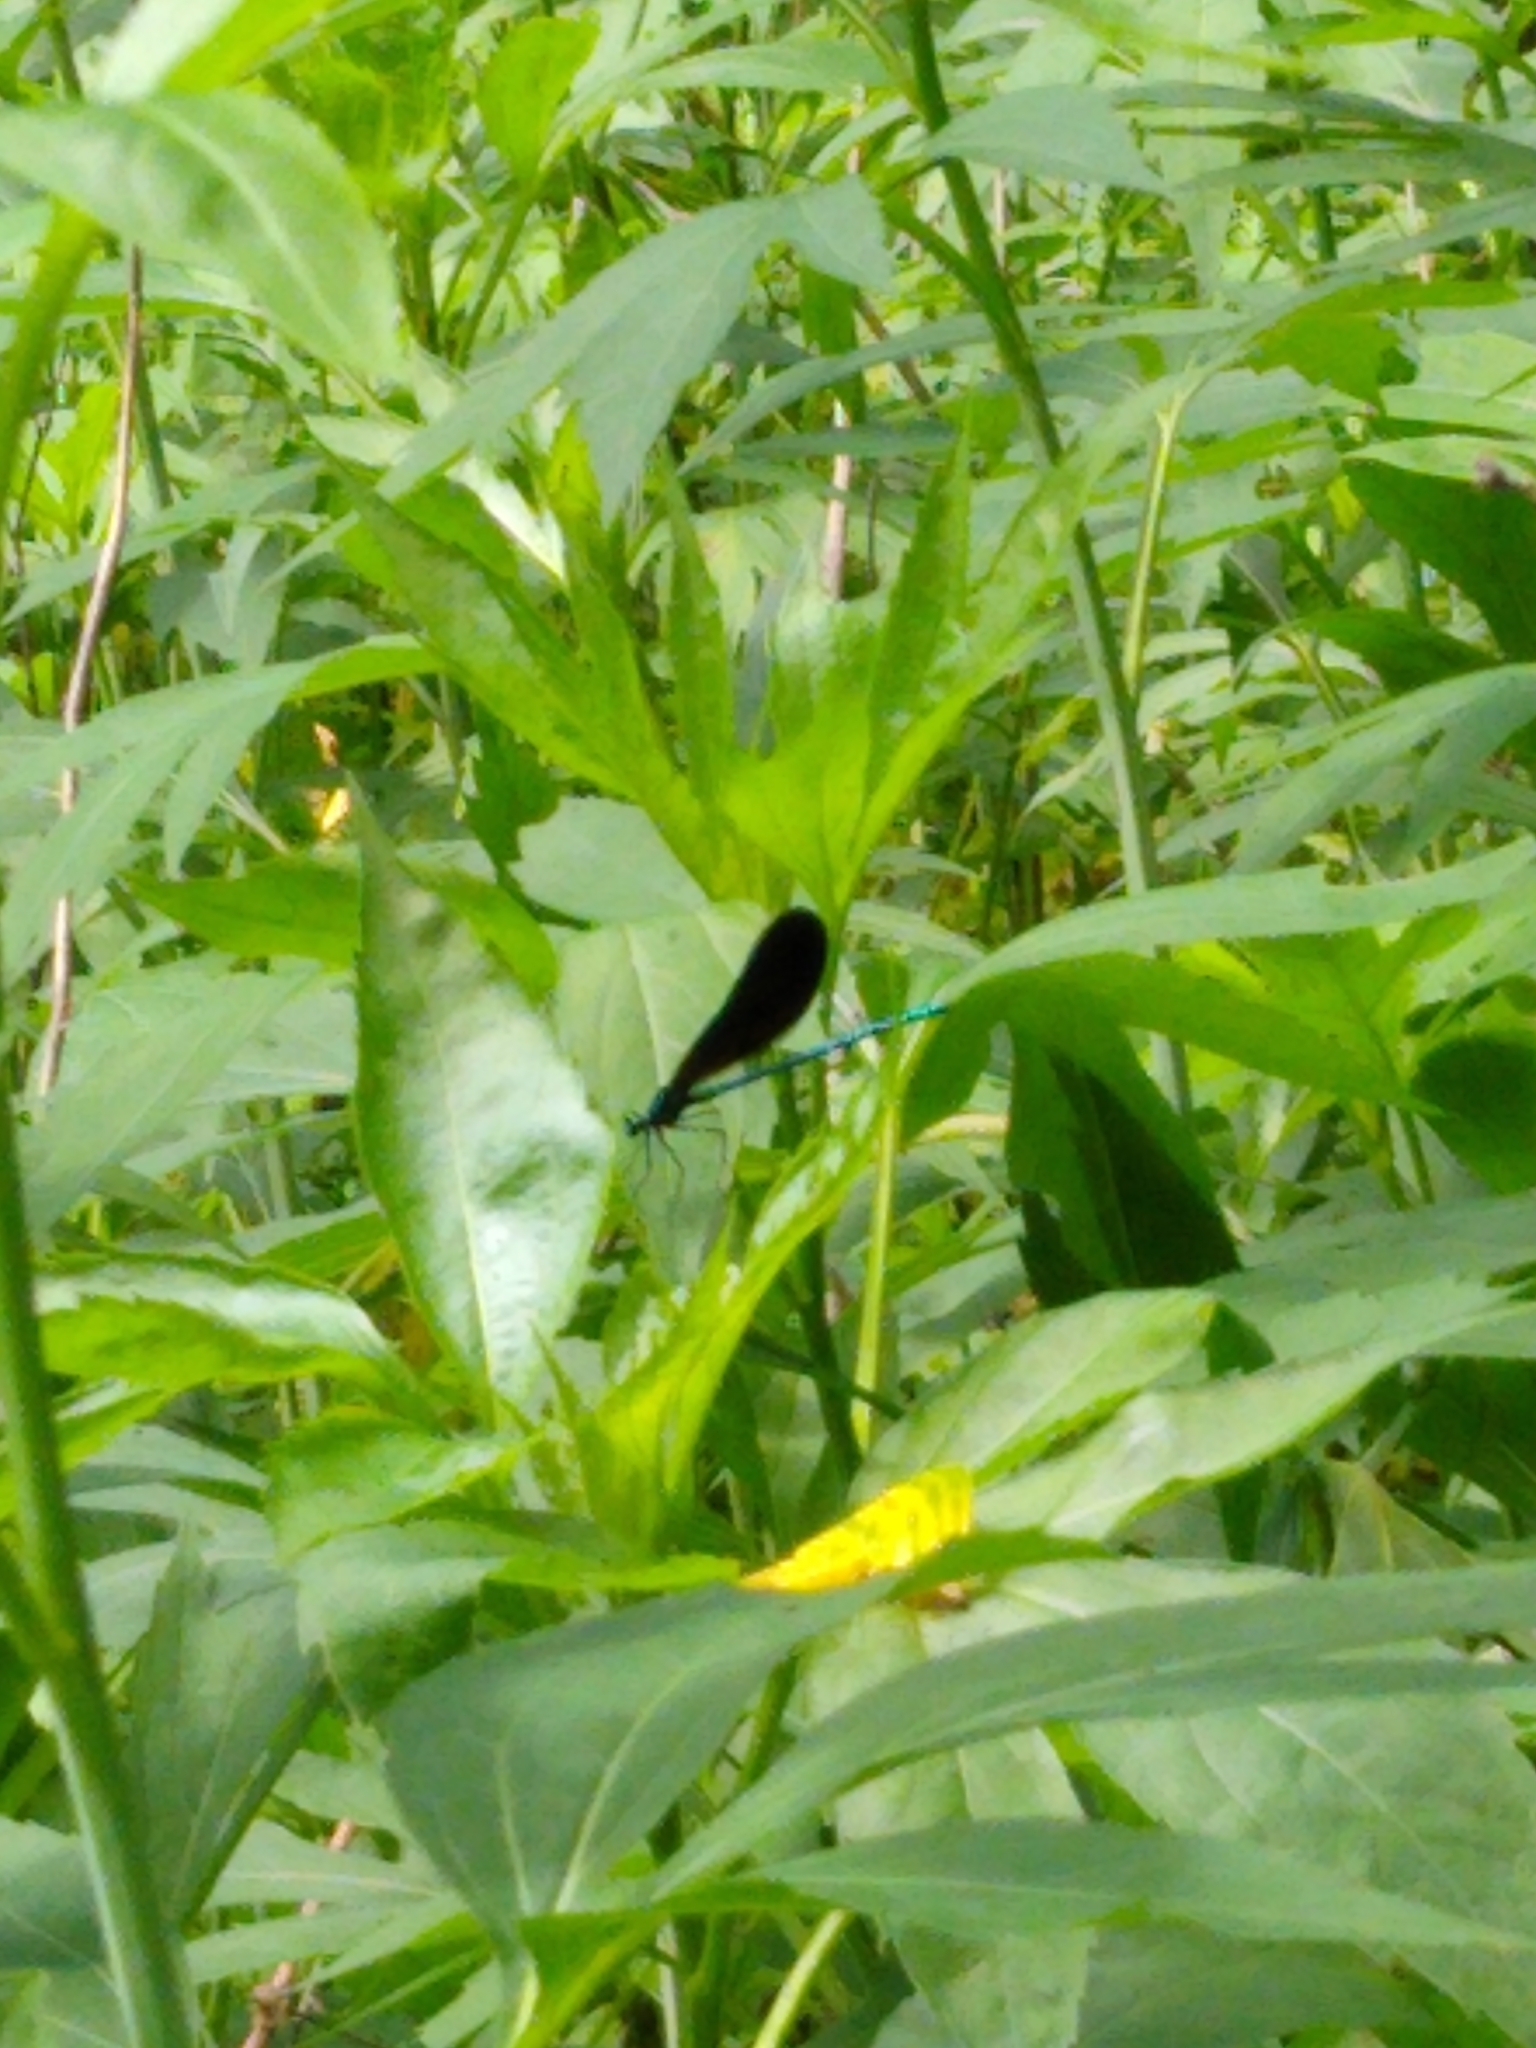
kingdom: Animalia
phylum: Arthropoda
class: Insecta
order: Odonata
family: Calopterygidae
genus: Calopteryx
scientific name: Calopteryx maculata
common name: Ebony jewelwing
